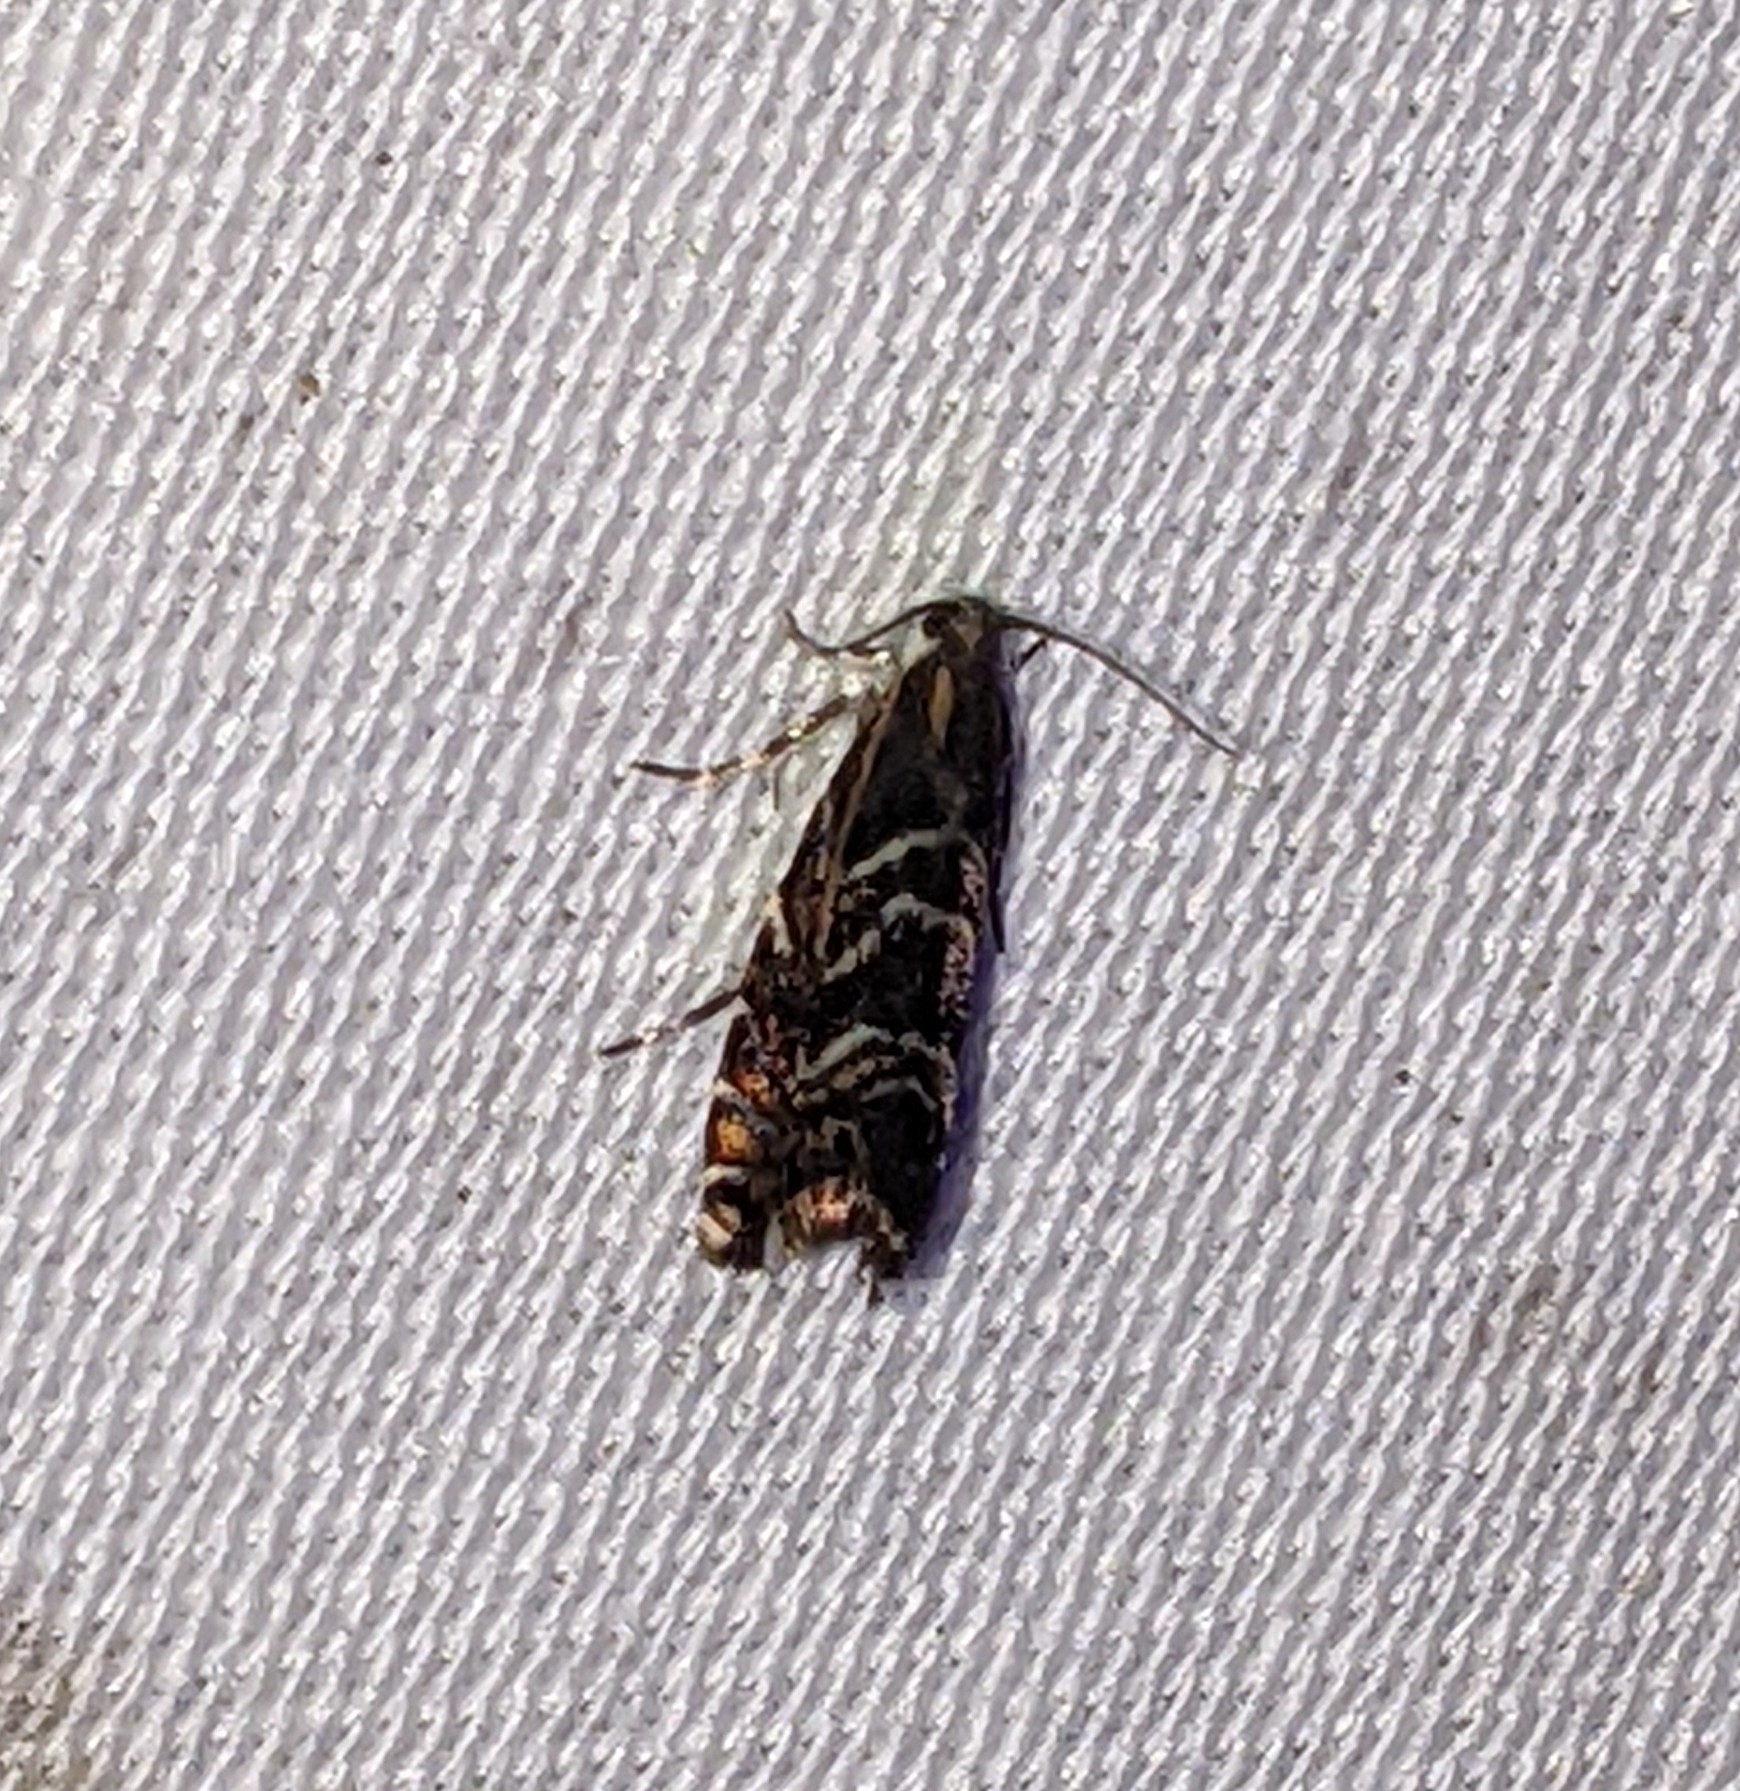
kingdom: Animalia
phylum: Arthropoda
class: Insecta
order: Lepidoptera
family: Tortricidae
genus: Thaumatographa
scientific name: Thaumatographa youngiella
